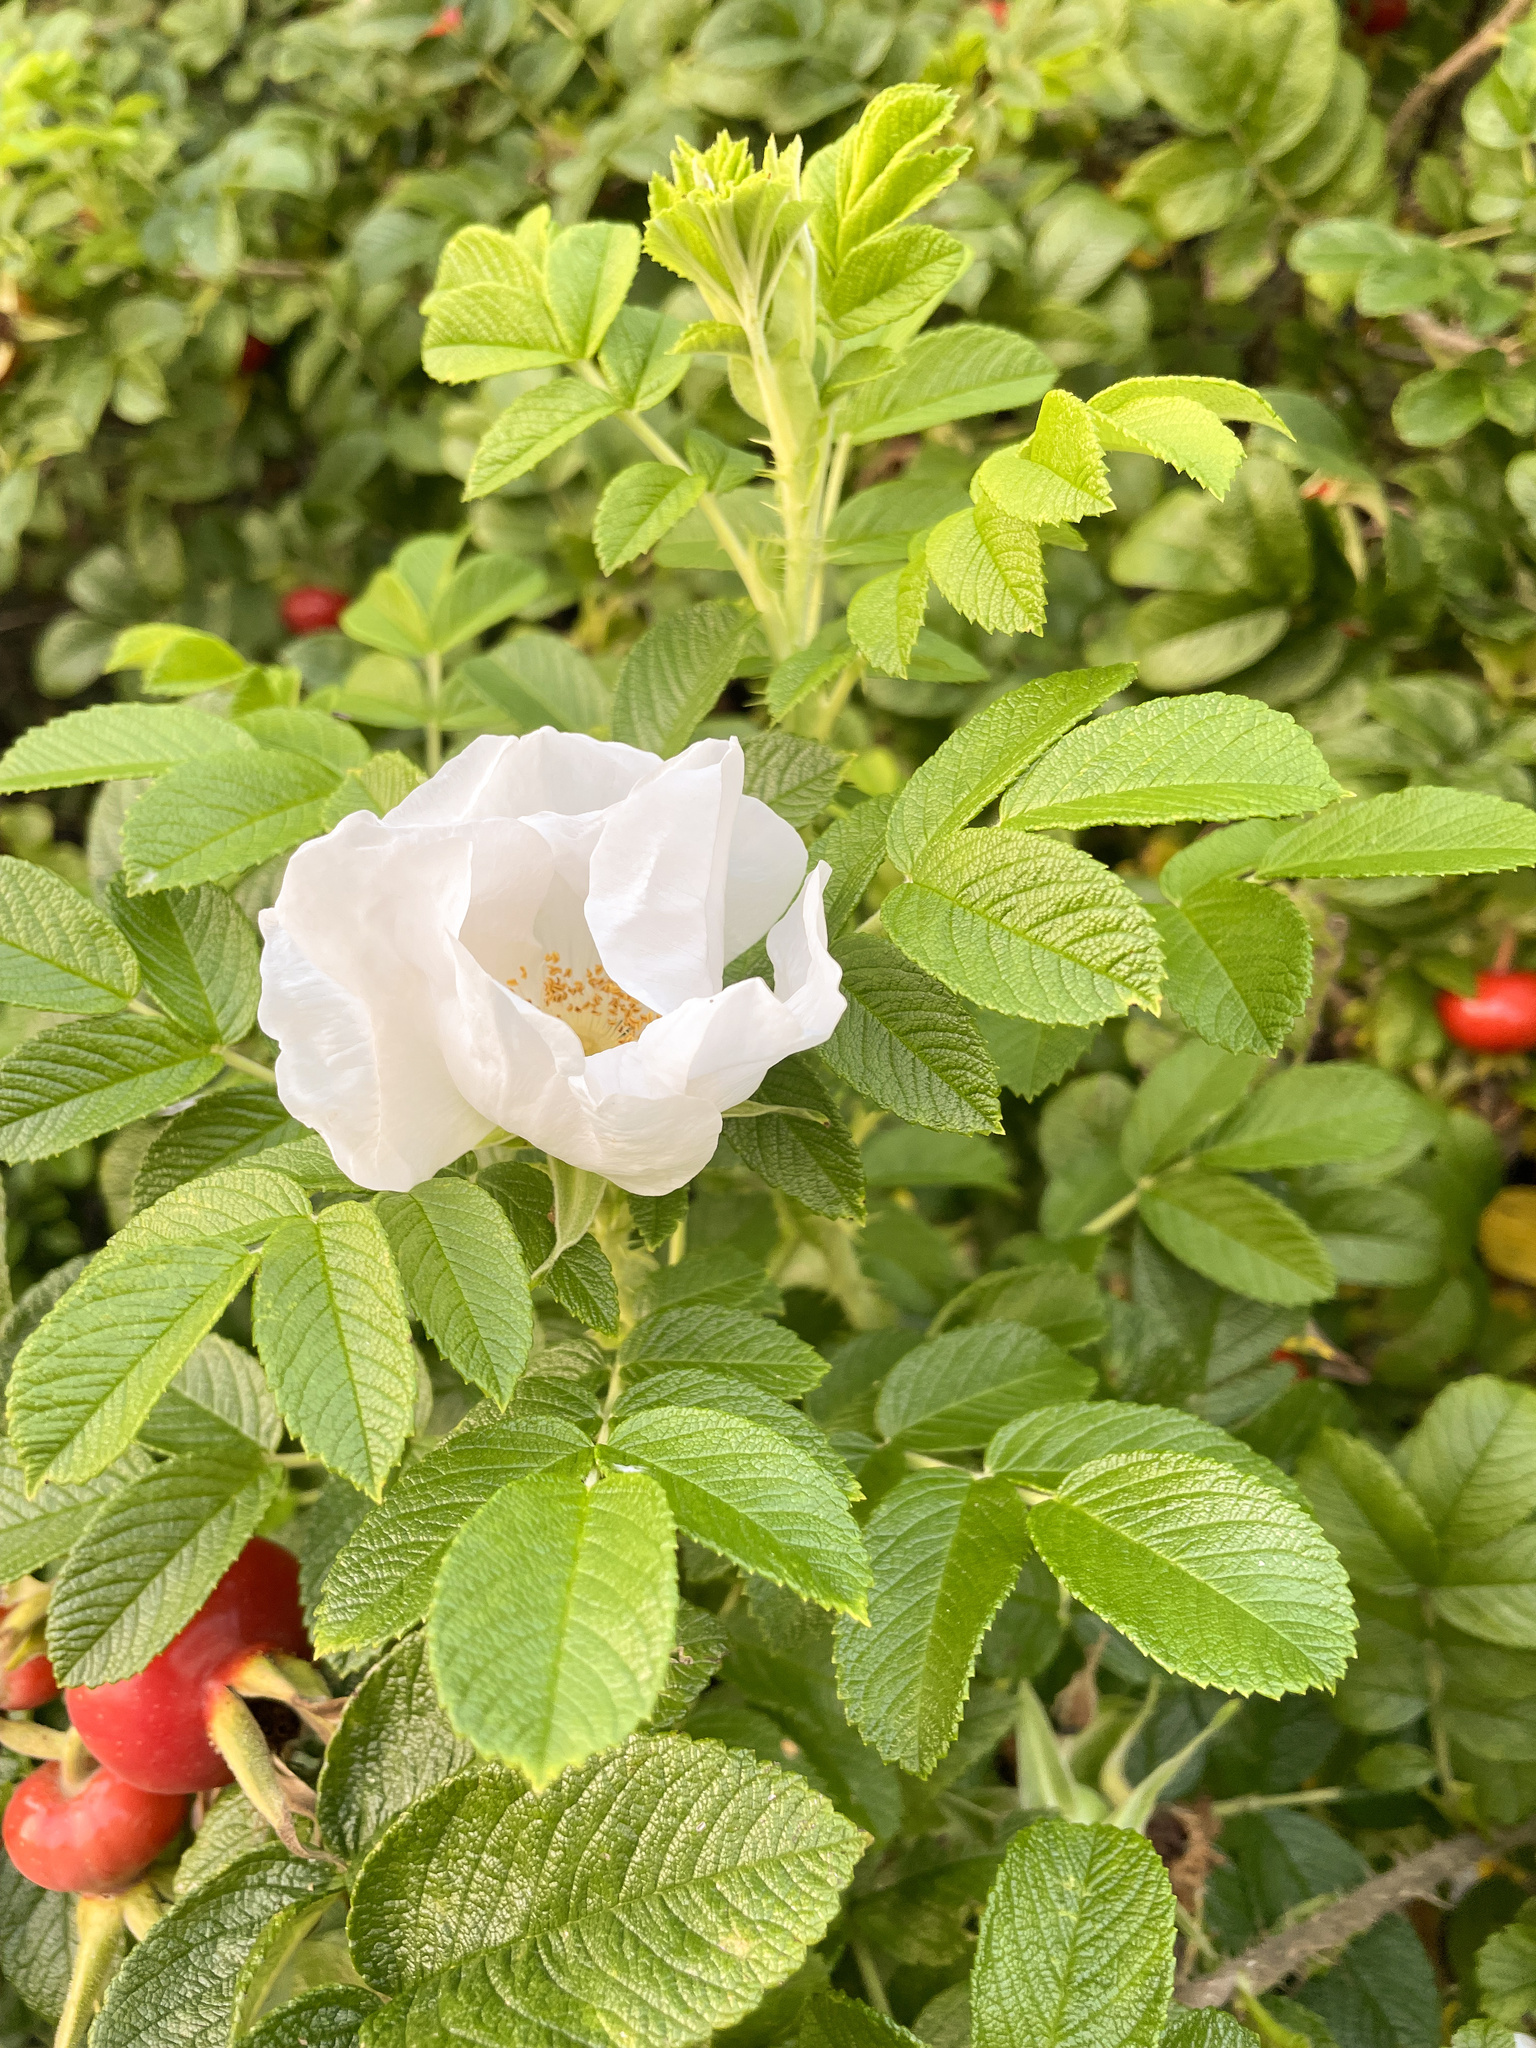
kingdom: Plantae
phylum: Tracheophyta
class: Magnoliopsida
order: Rosales
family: Rosaceae
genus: Rosa
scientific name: Rosa rugosa
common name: Japanese rose
